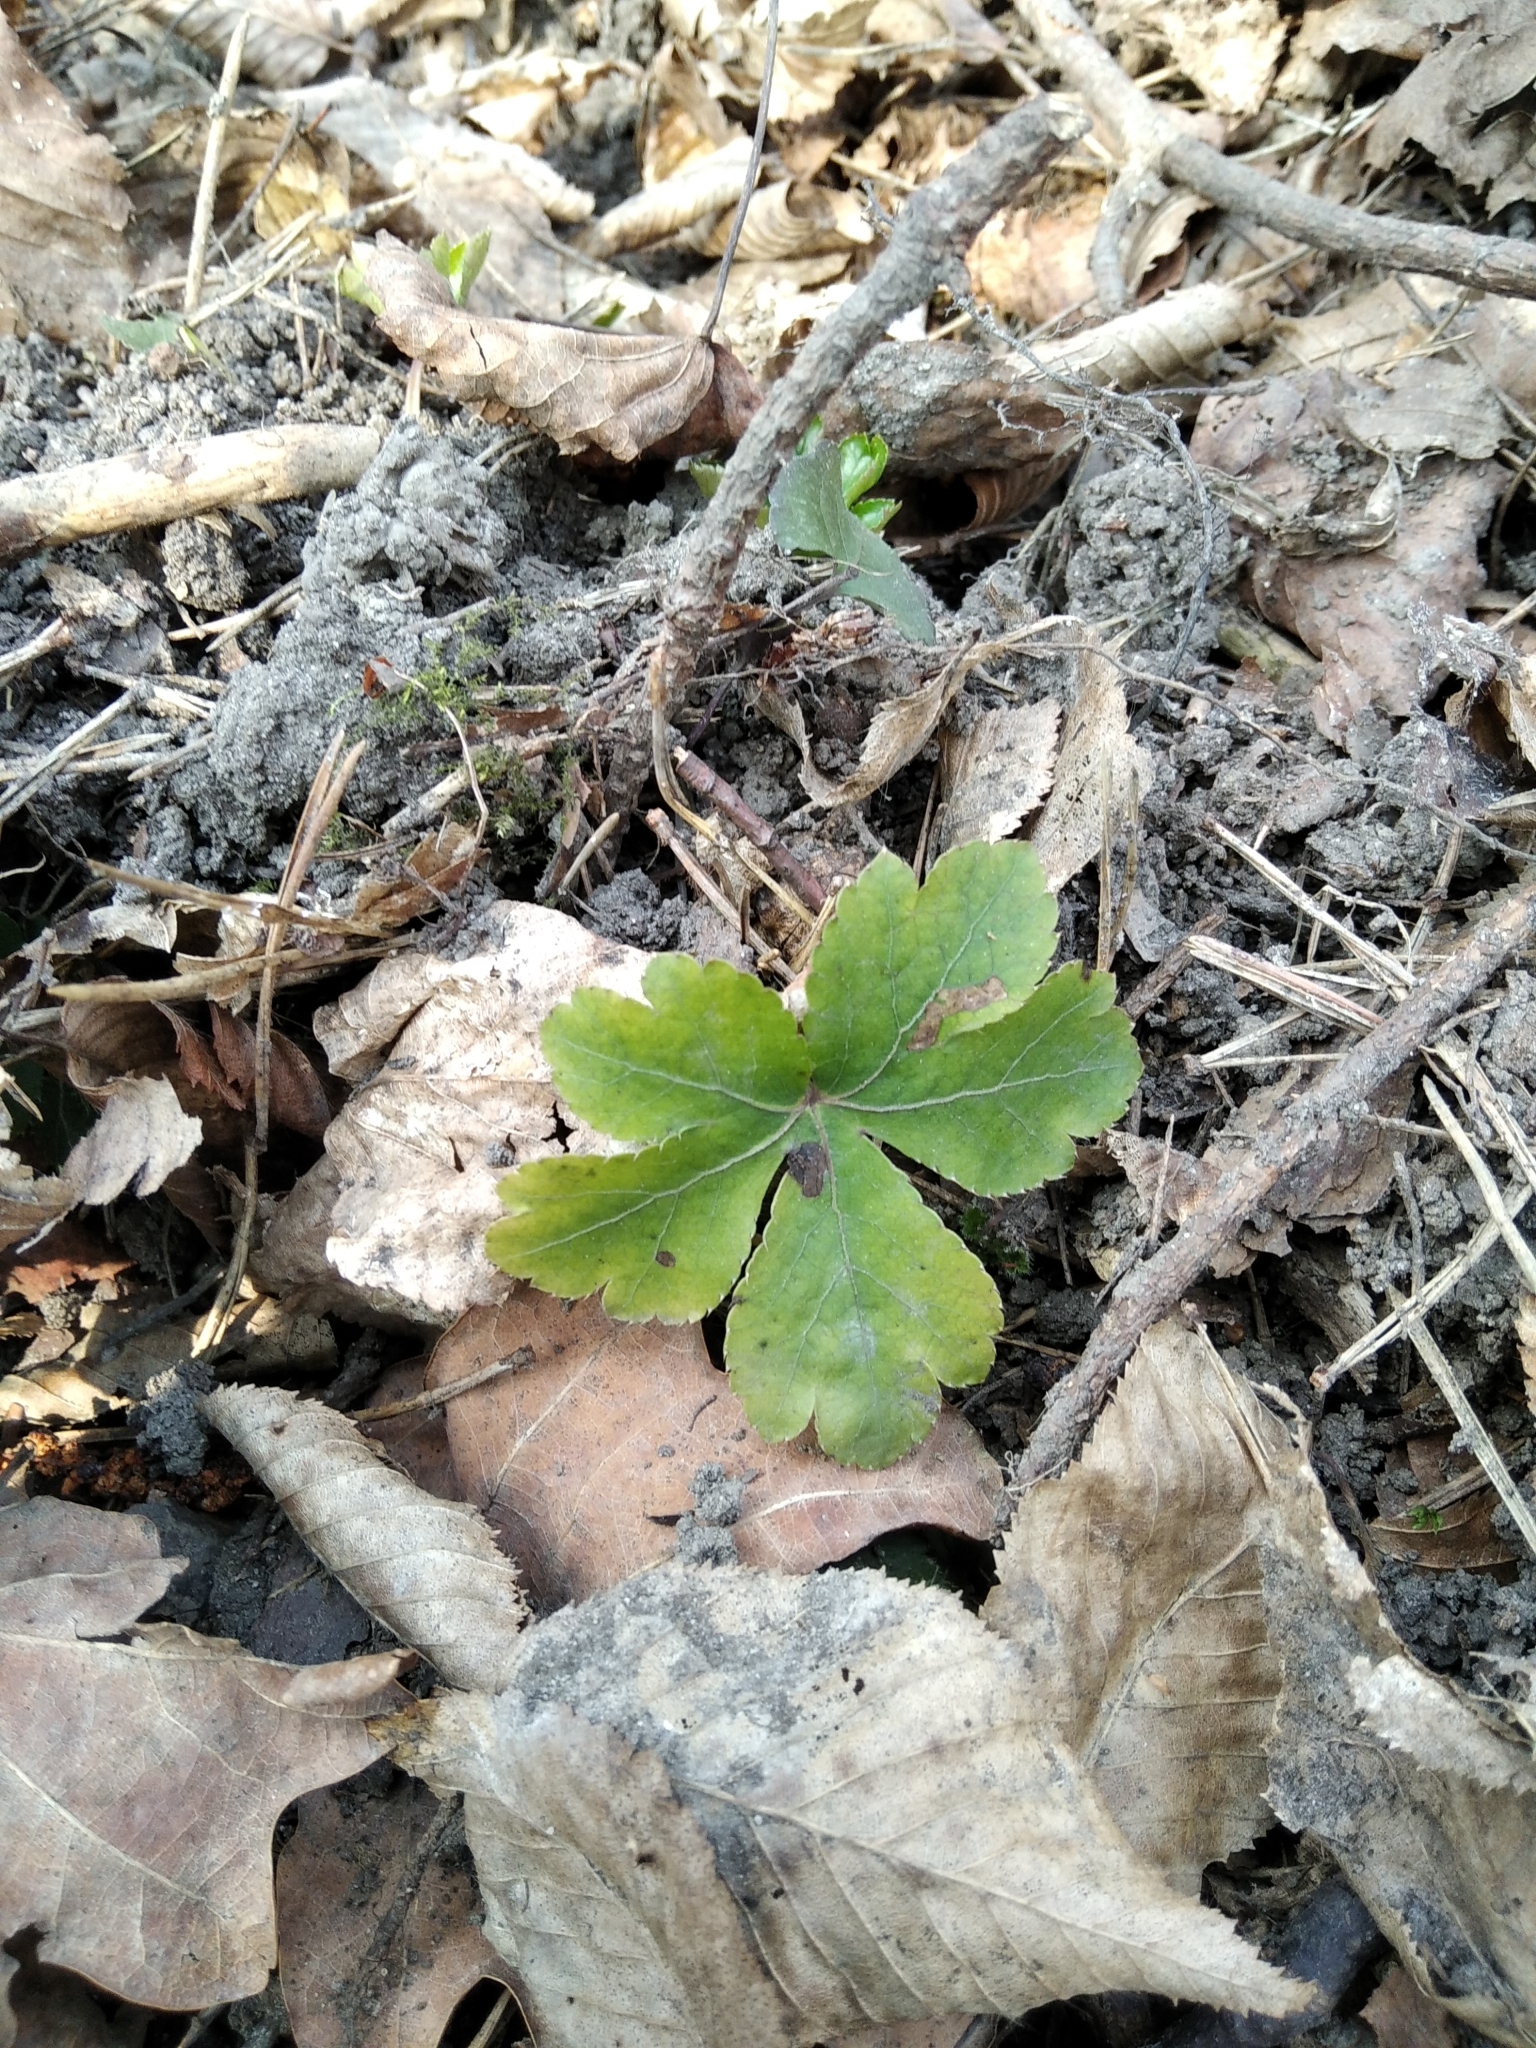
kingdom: Plantae
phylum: Tracheophyta
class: Magnoliopsida
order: Apiales
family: Apiaceae
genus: Sanicula
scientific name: Sanicula europaea
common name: Sanicle
